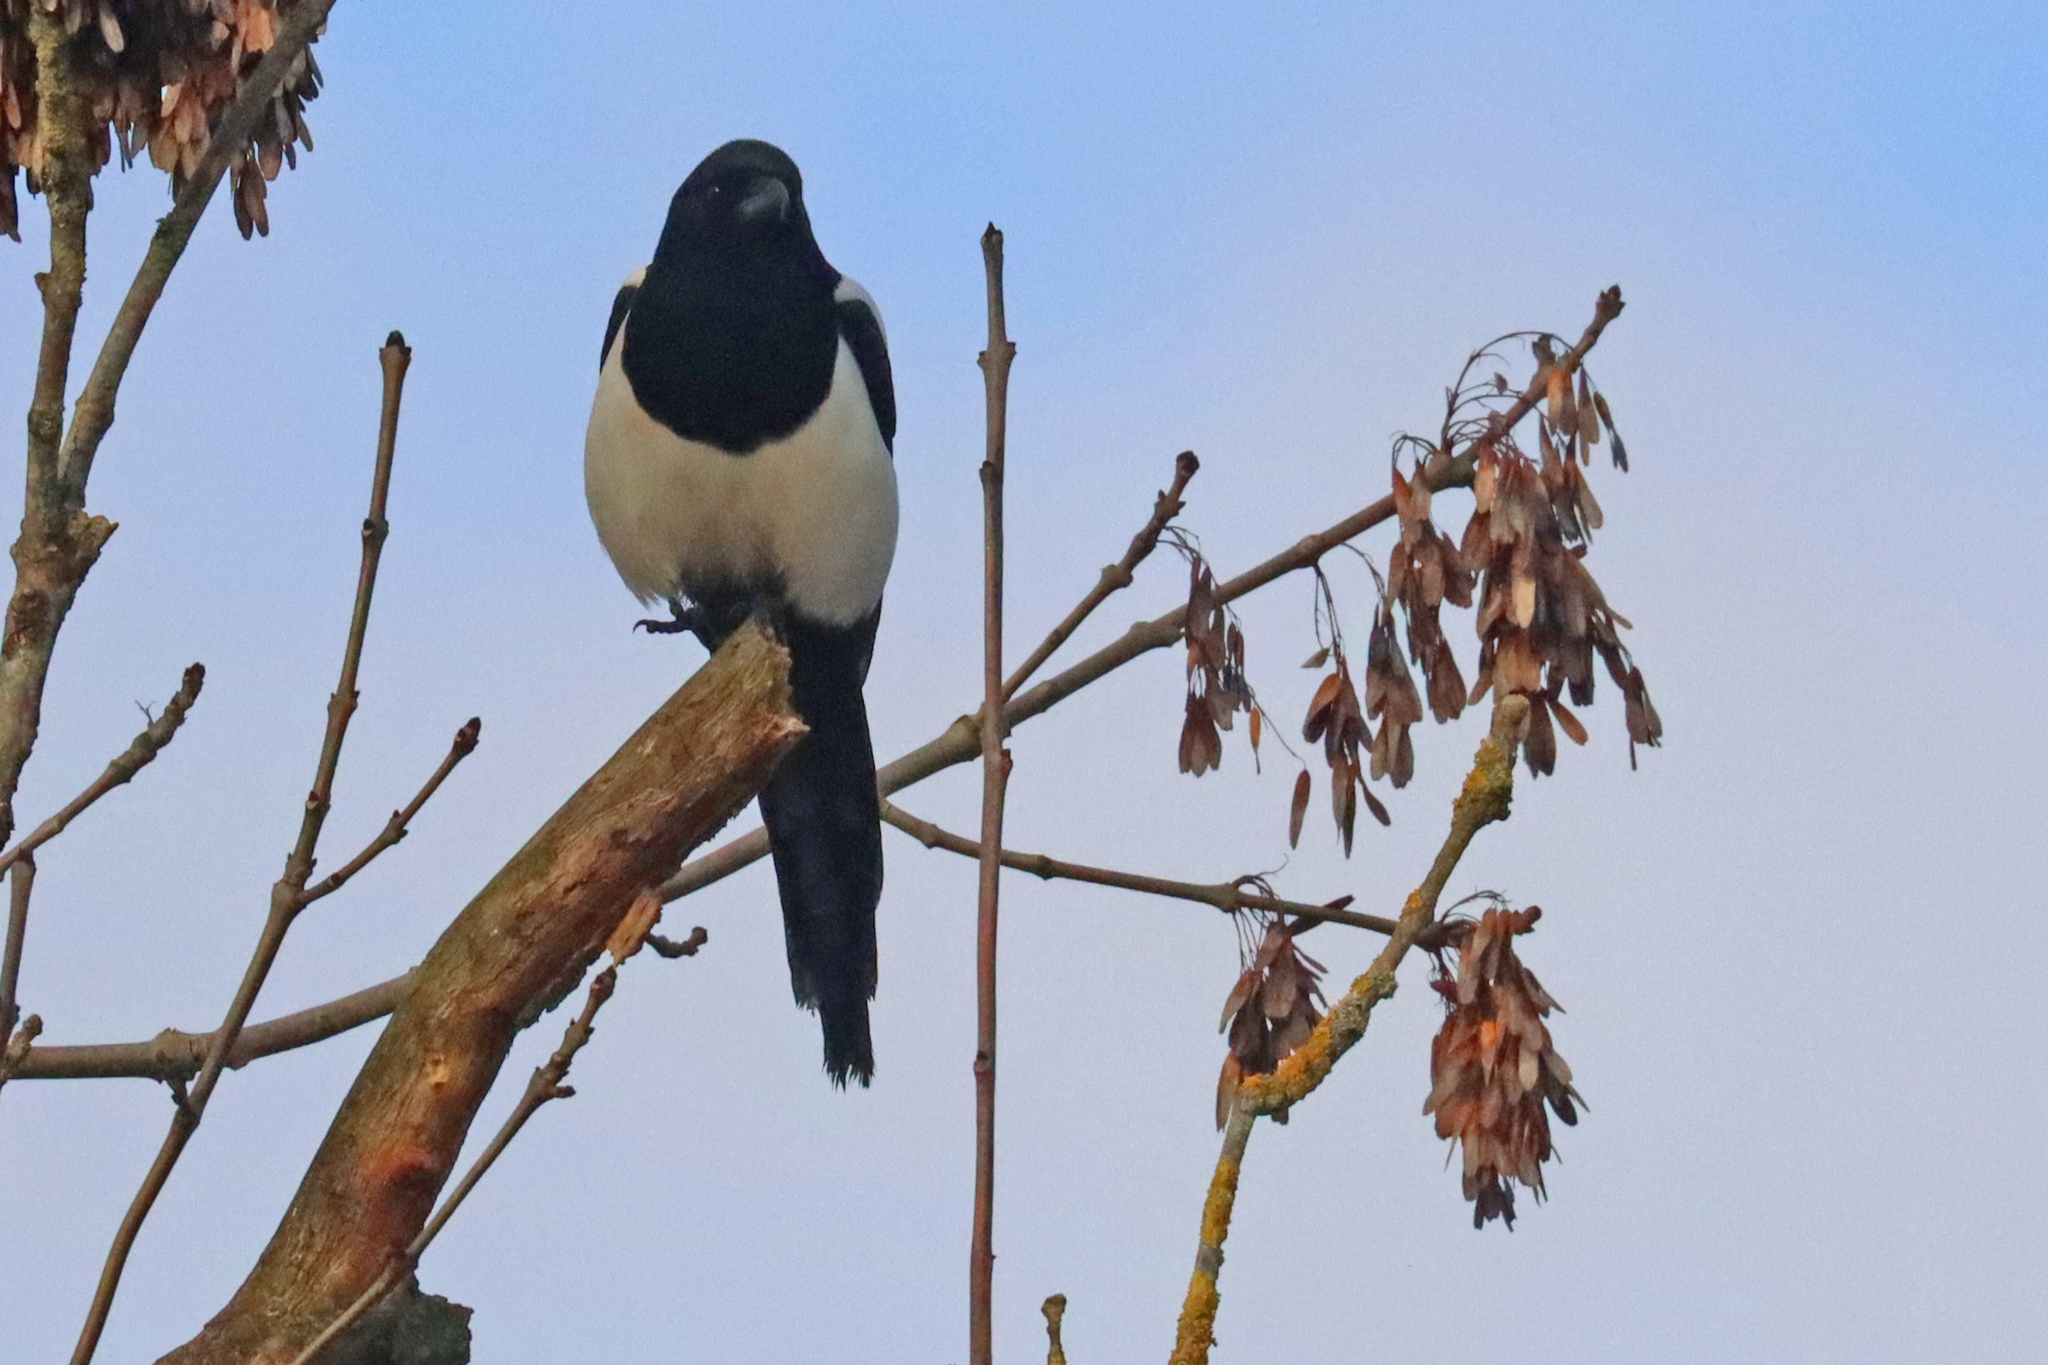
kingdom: Animalia
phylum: Chordata
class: Aves
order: Passeriformes
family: Corvidae
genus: Pica
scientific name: Pica pica
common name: Eurasian magpie
